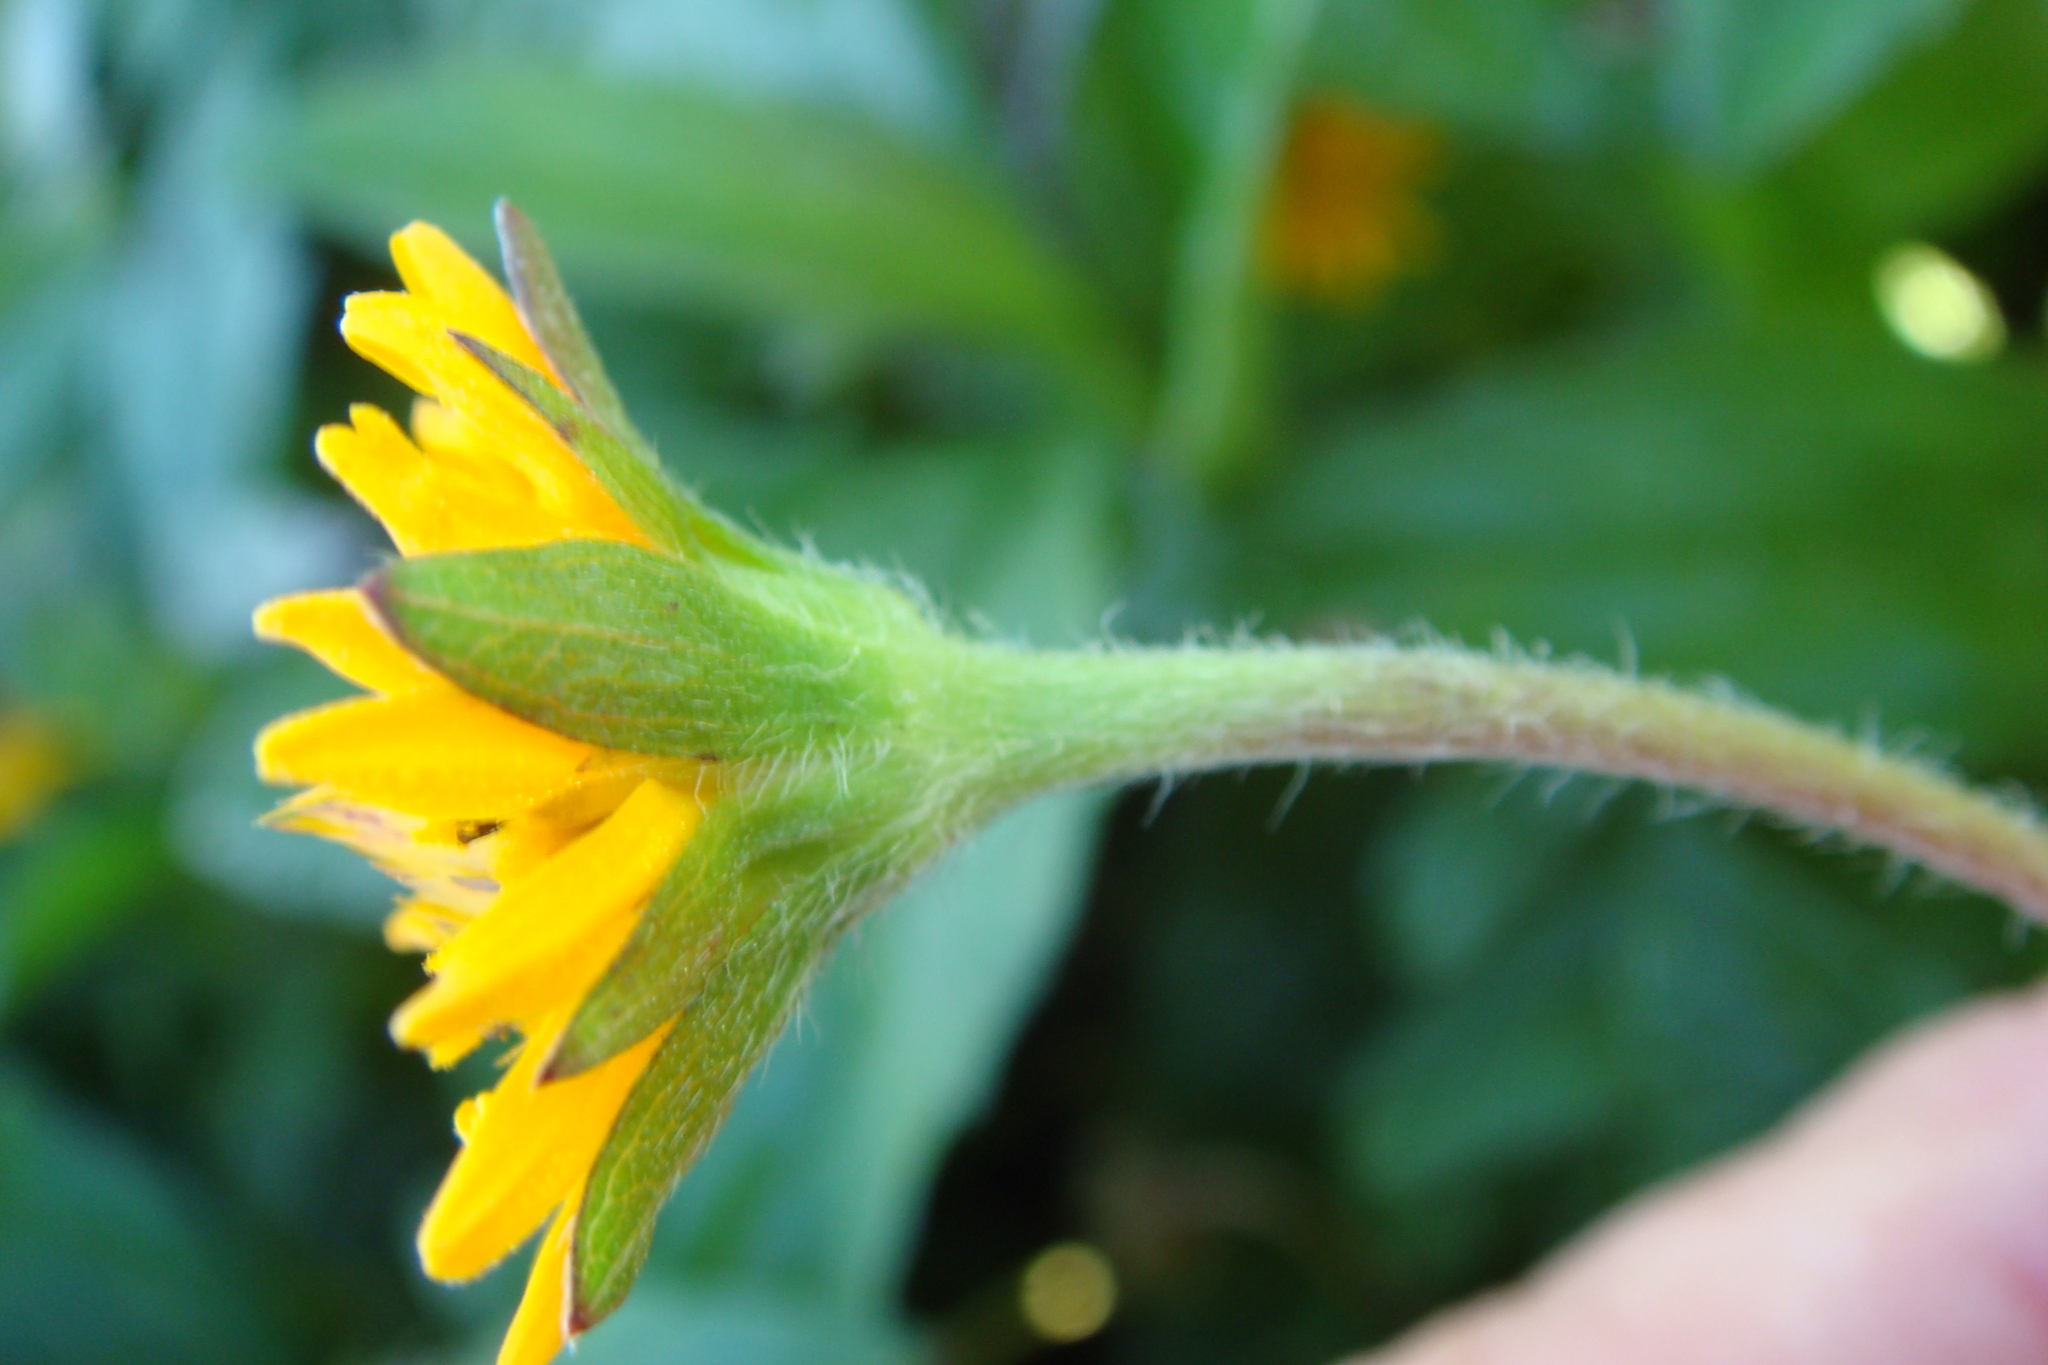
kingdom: Plantae
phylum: Tracheophyta
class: Magnoliopsida
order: Asterales
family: Asteraceae
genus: Sphagneticola
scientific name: Sphagneticola trilobata
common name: Bay biscayne creeping-oxeye
